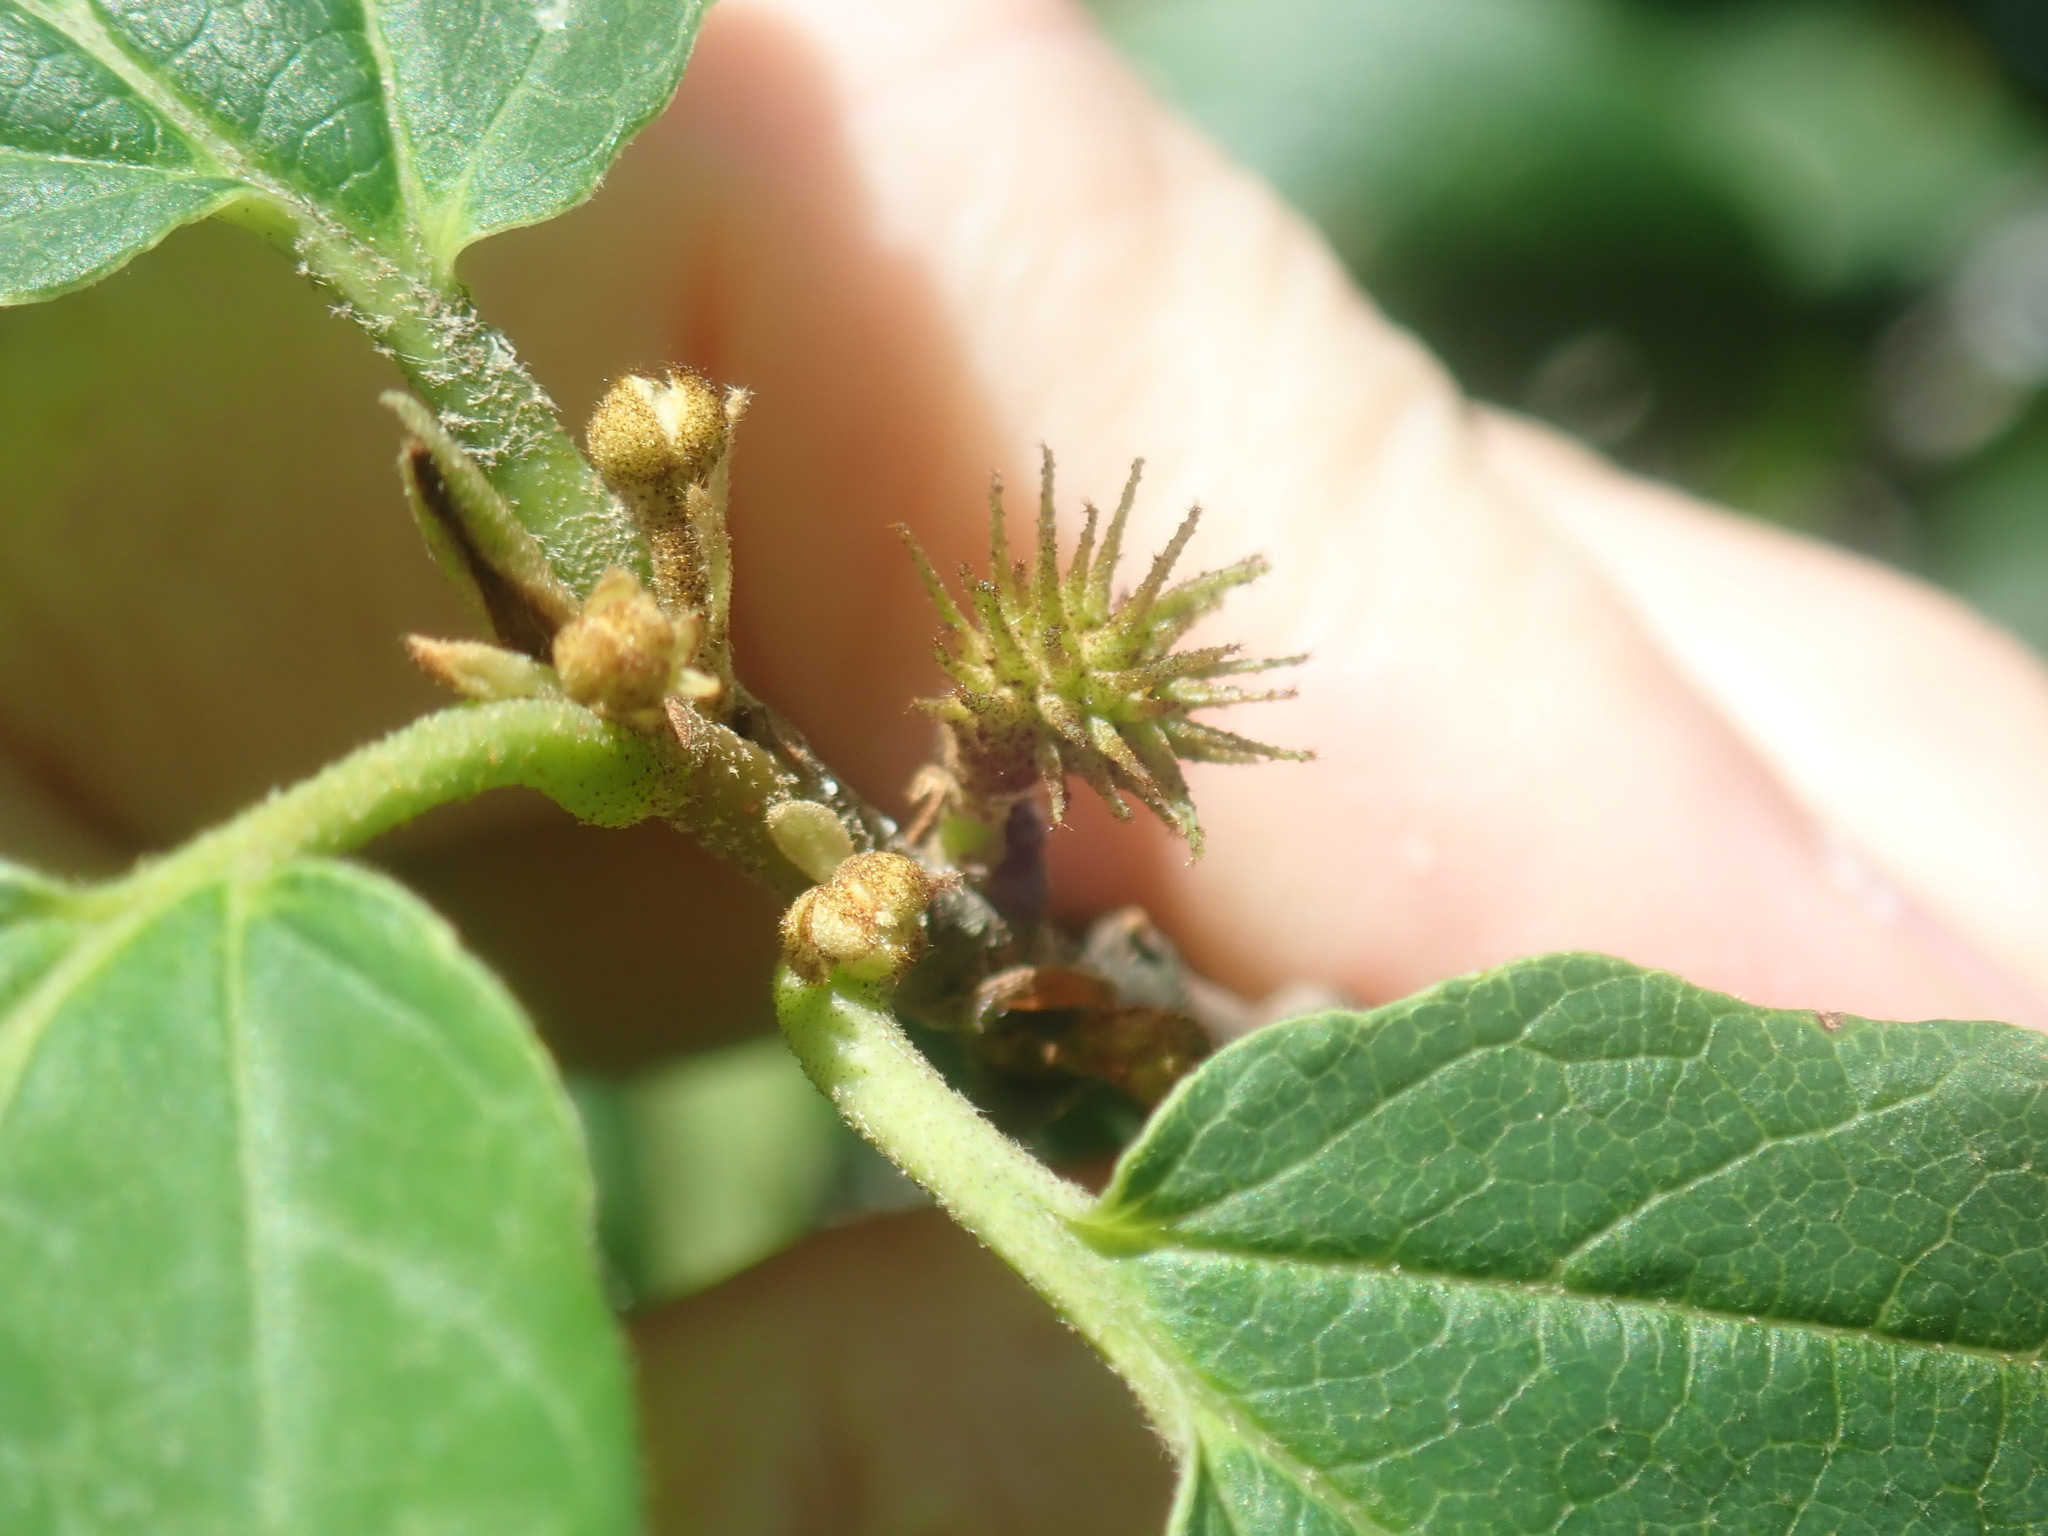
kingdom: Animalia
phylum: Arthropoda
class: Insecta
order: Hemiptera
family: Aphididae
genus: Hamamelistes
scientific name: Hamamelistes spinosus
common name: Witch hazel gall aphid
